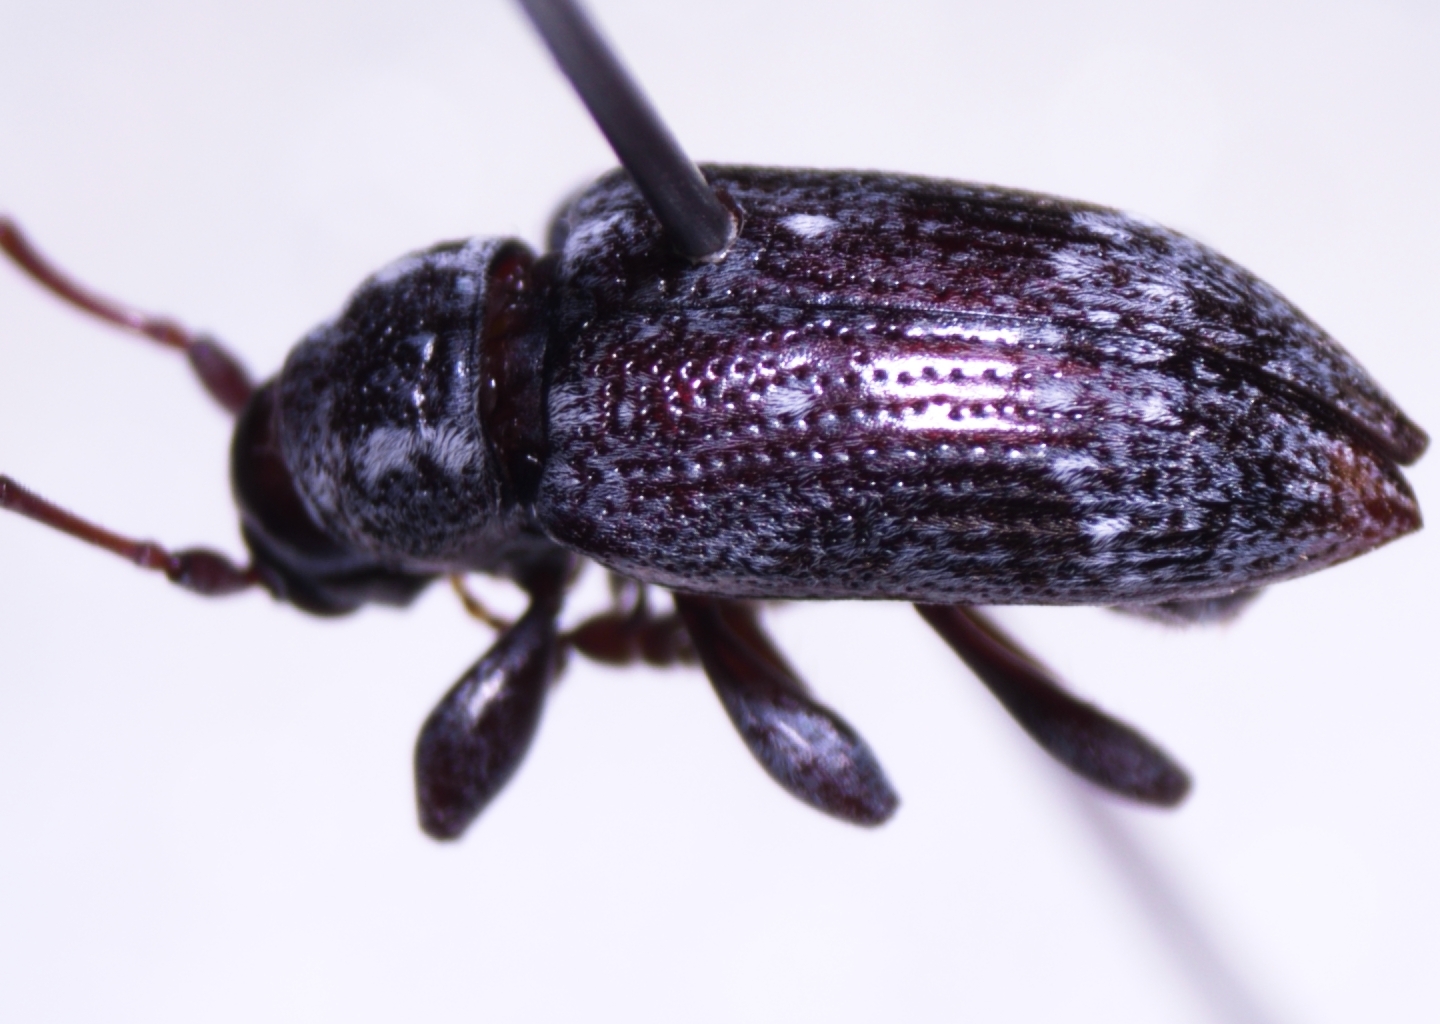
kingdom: Animalia
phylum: Arthropoda
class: Insecta
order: Coleoptera
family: Cerambycidae
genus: Oopsis
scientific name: Oopsis nutator
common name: Oopsis long-horned beetle
